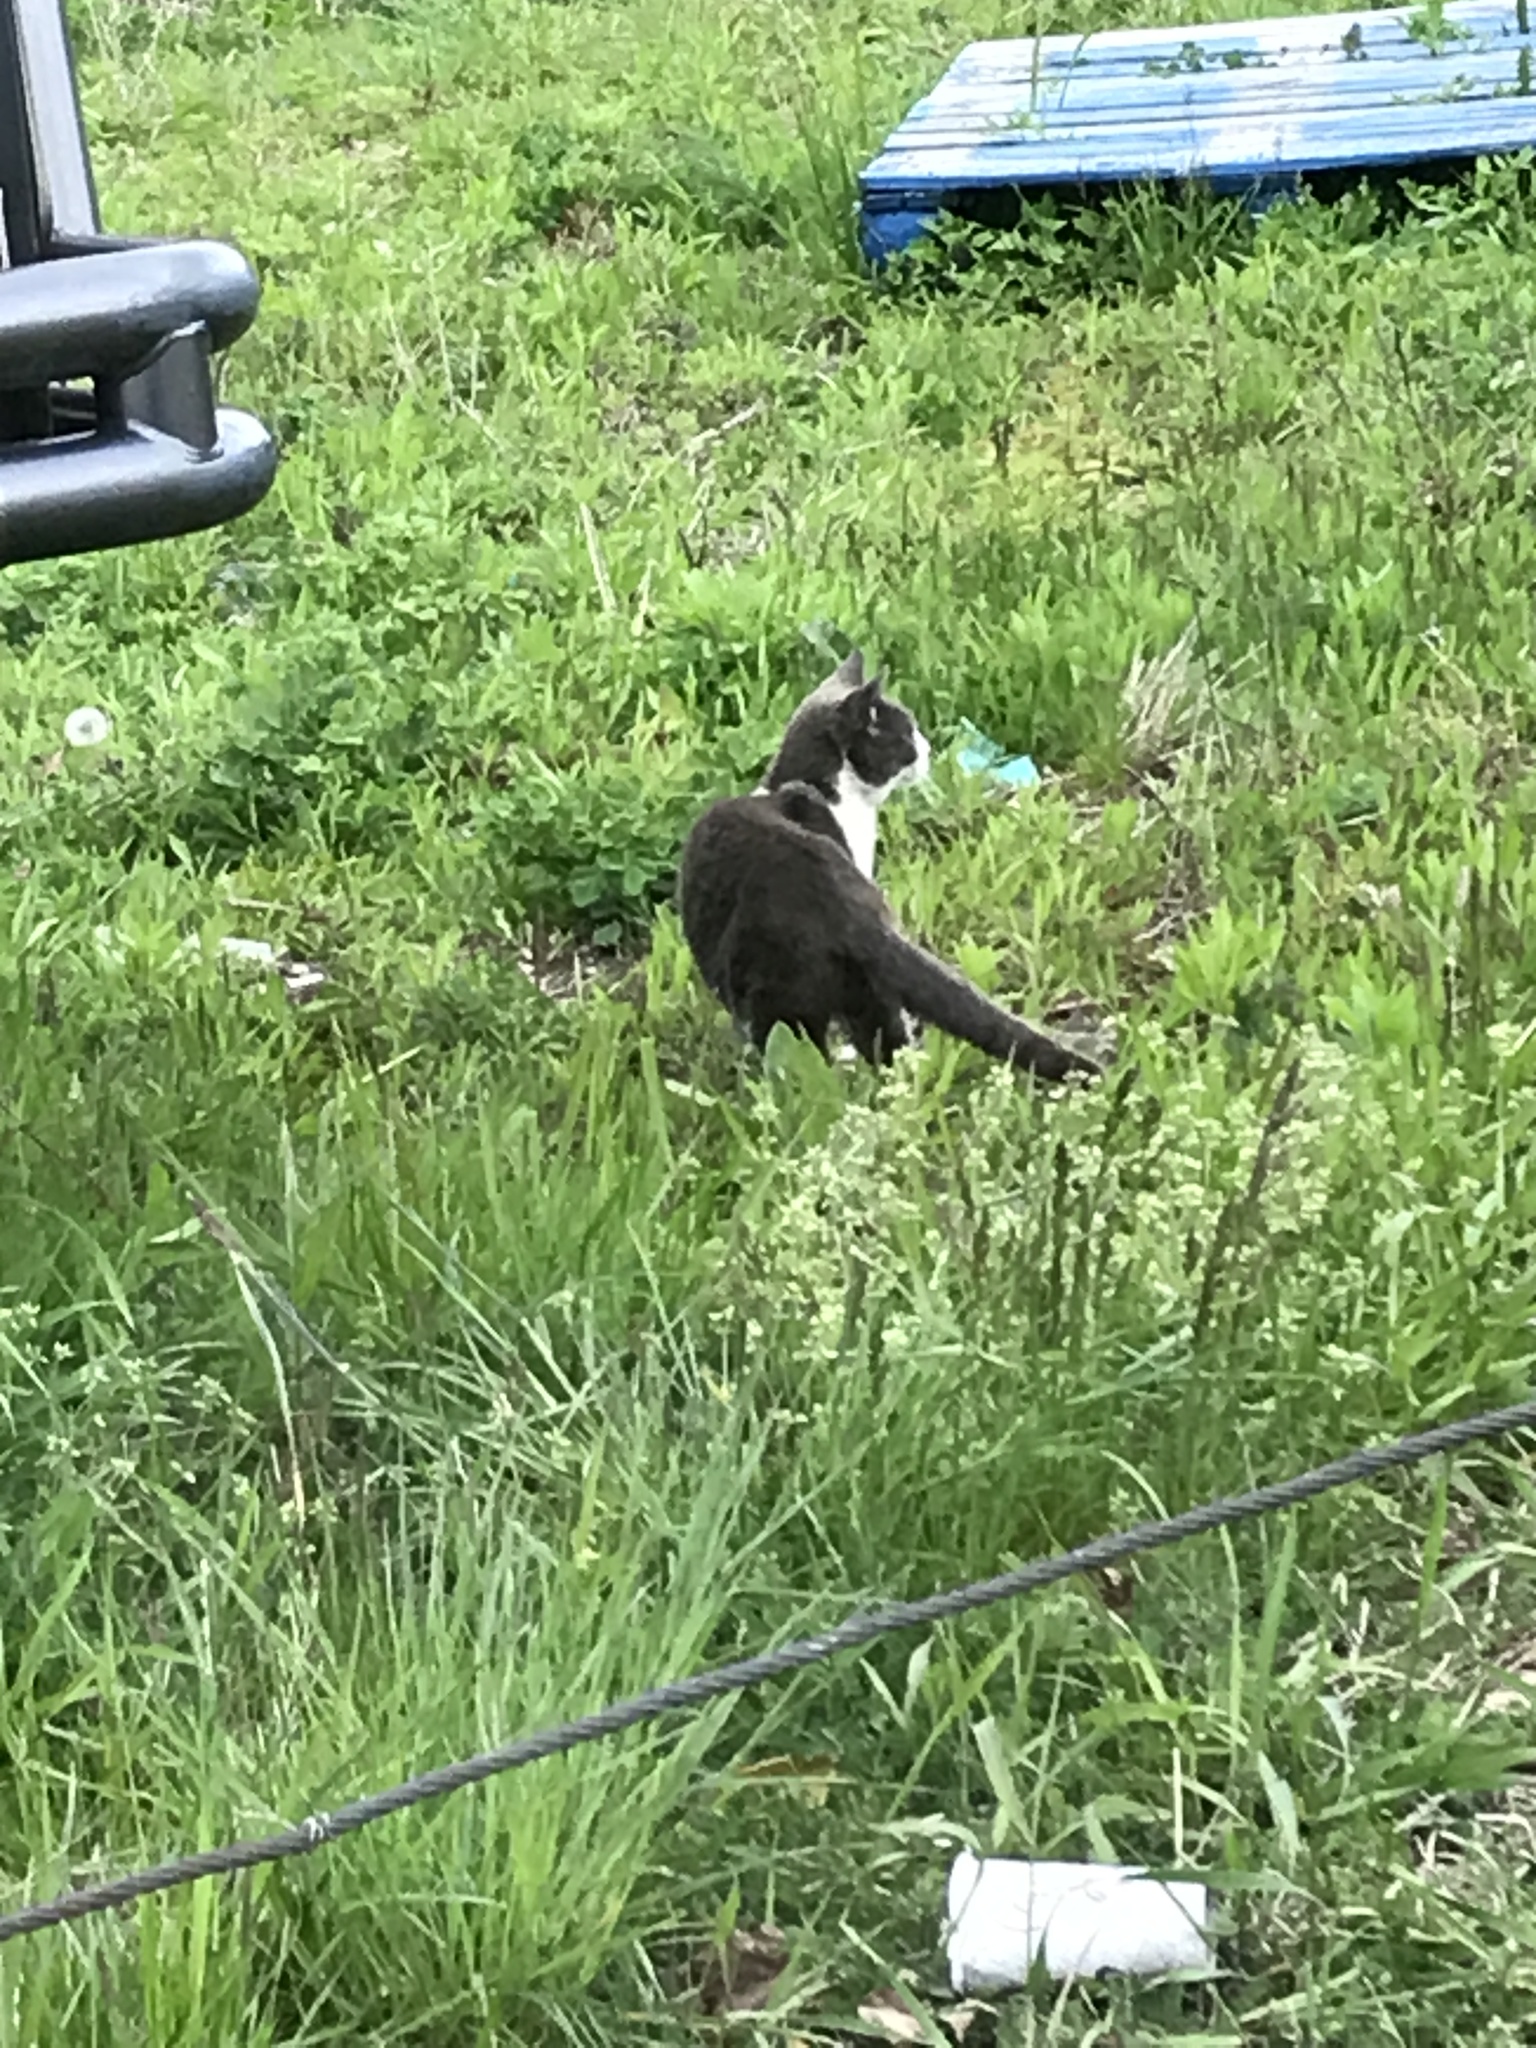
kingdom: Animalia
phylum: Chordata
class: Mammalia
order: Carnivora
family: Felidae
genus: Felis
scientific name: Felis catus
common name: Domestic cat
